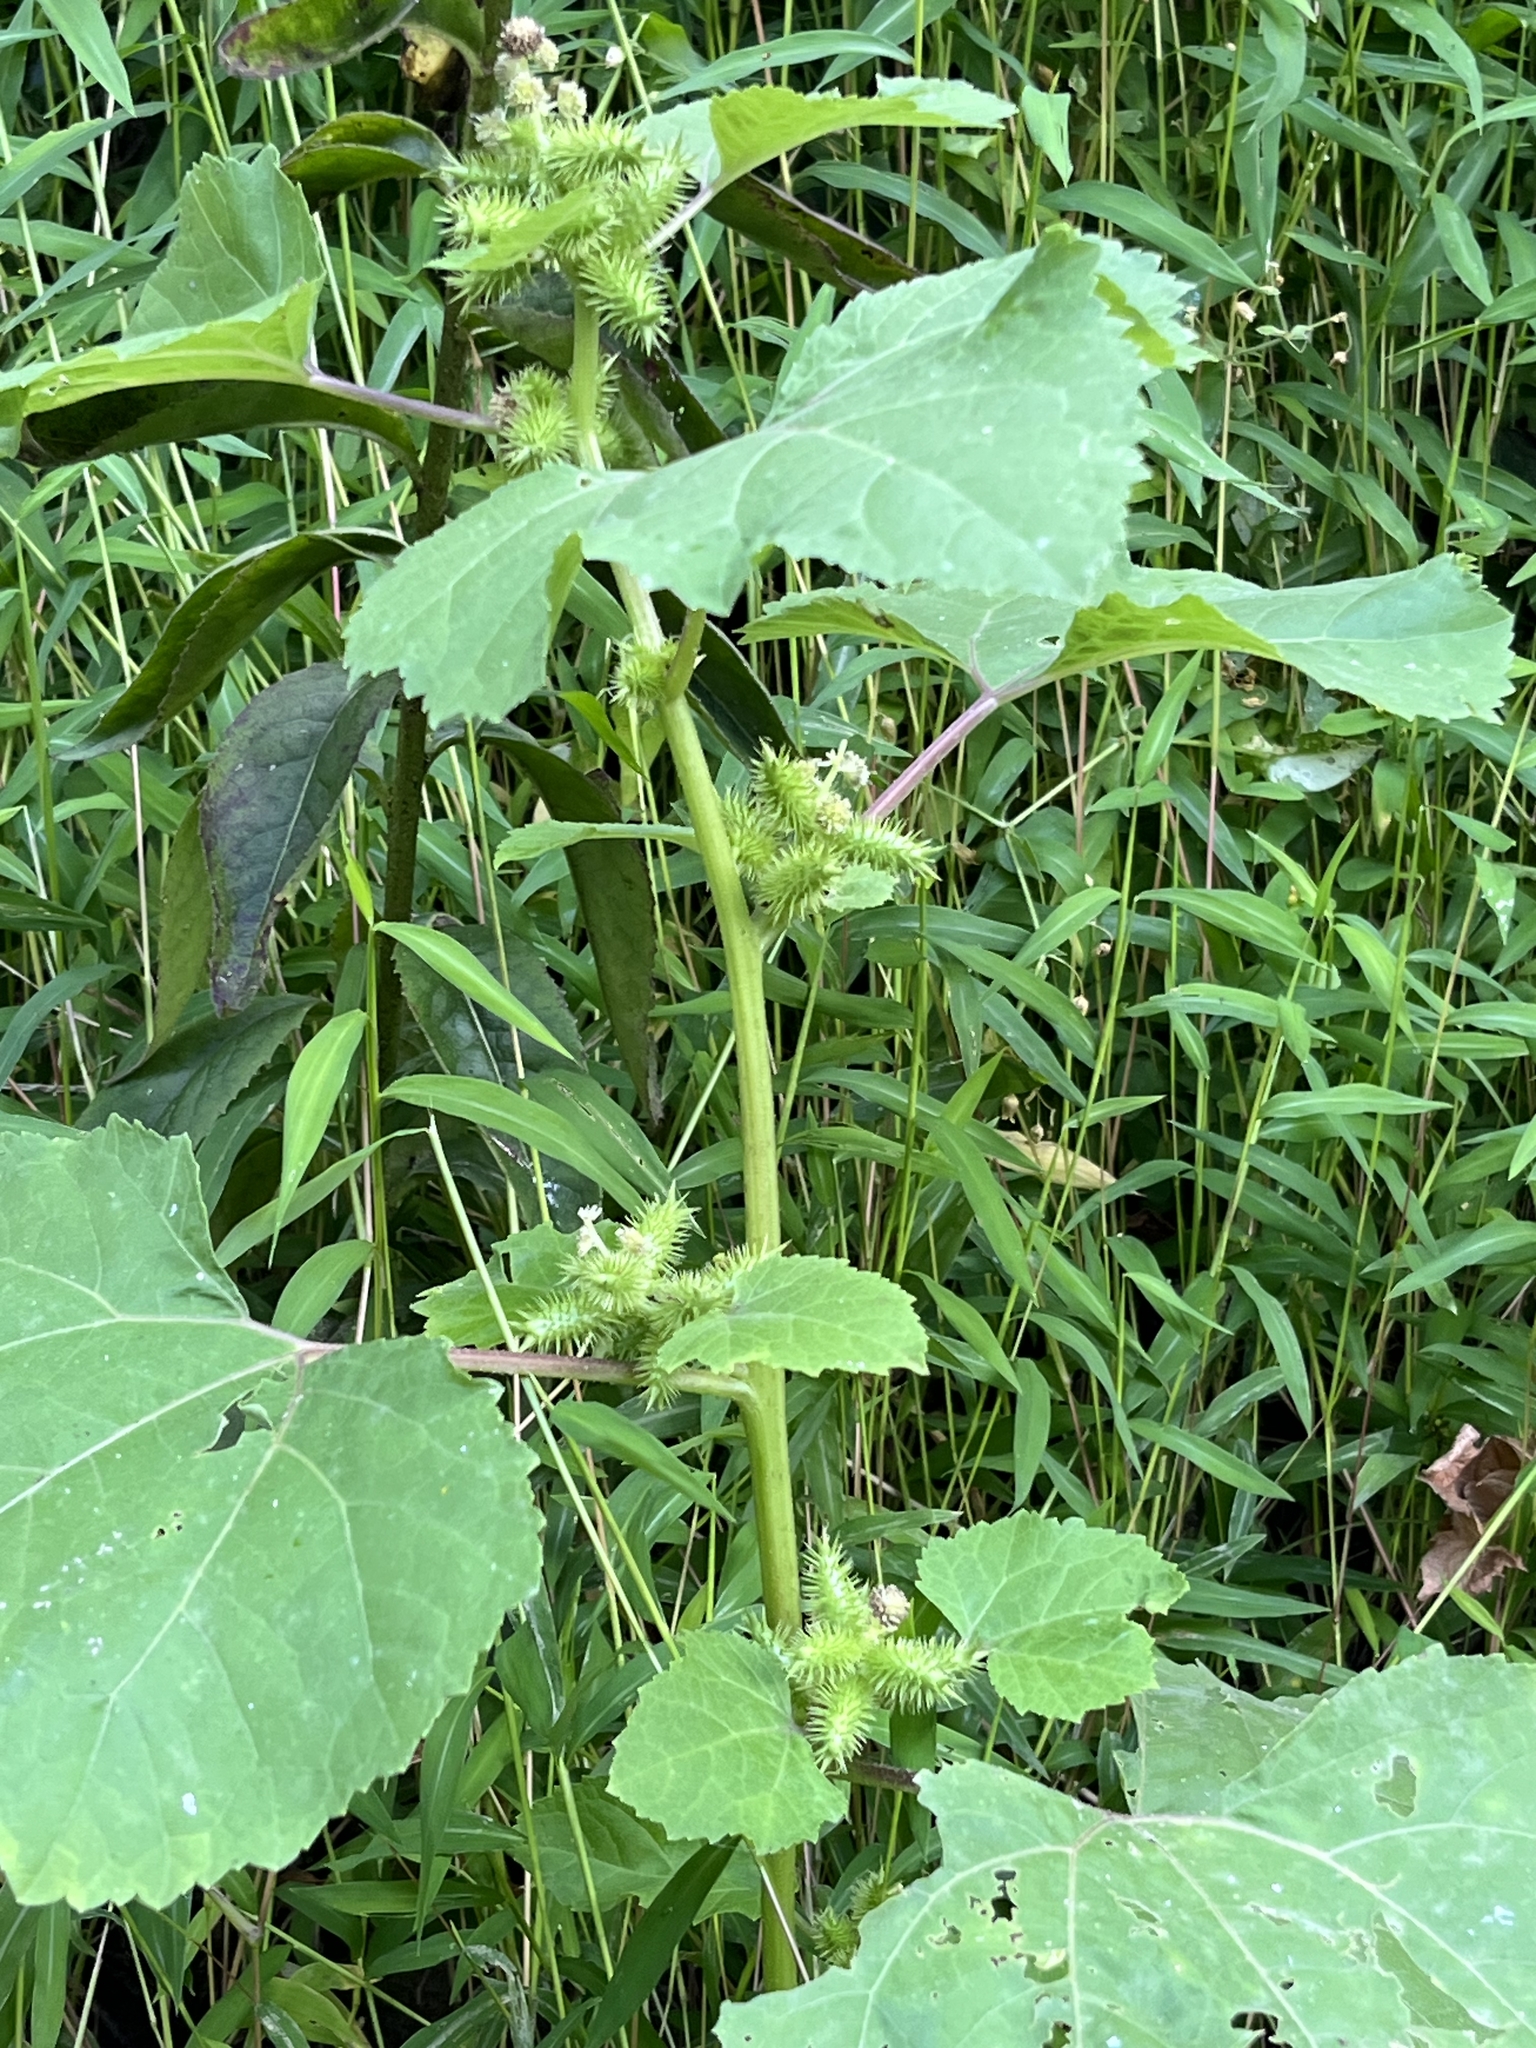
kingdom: Plantae
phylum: Tracheophyta
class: Magnoliopsida
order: Asterales
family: Asteraceae
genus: Xanthium
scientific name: Xanthium strumarium
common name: Rough cocklebur
